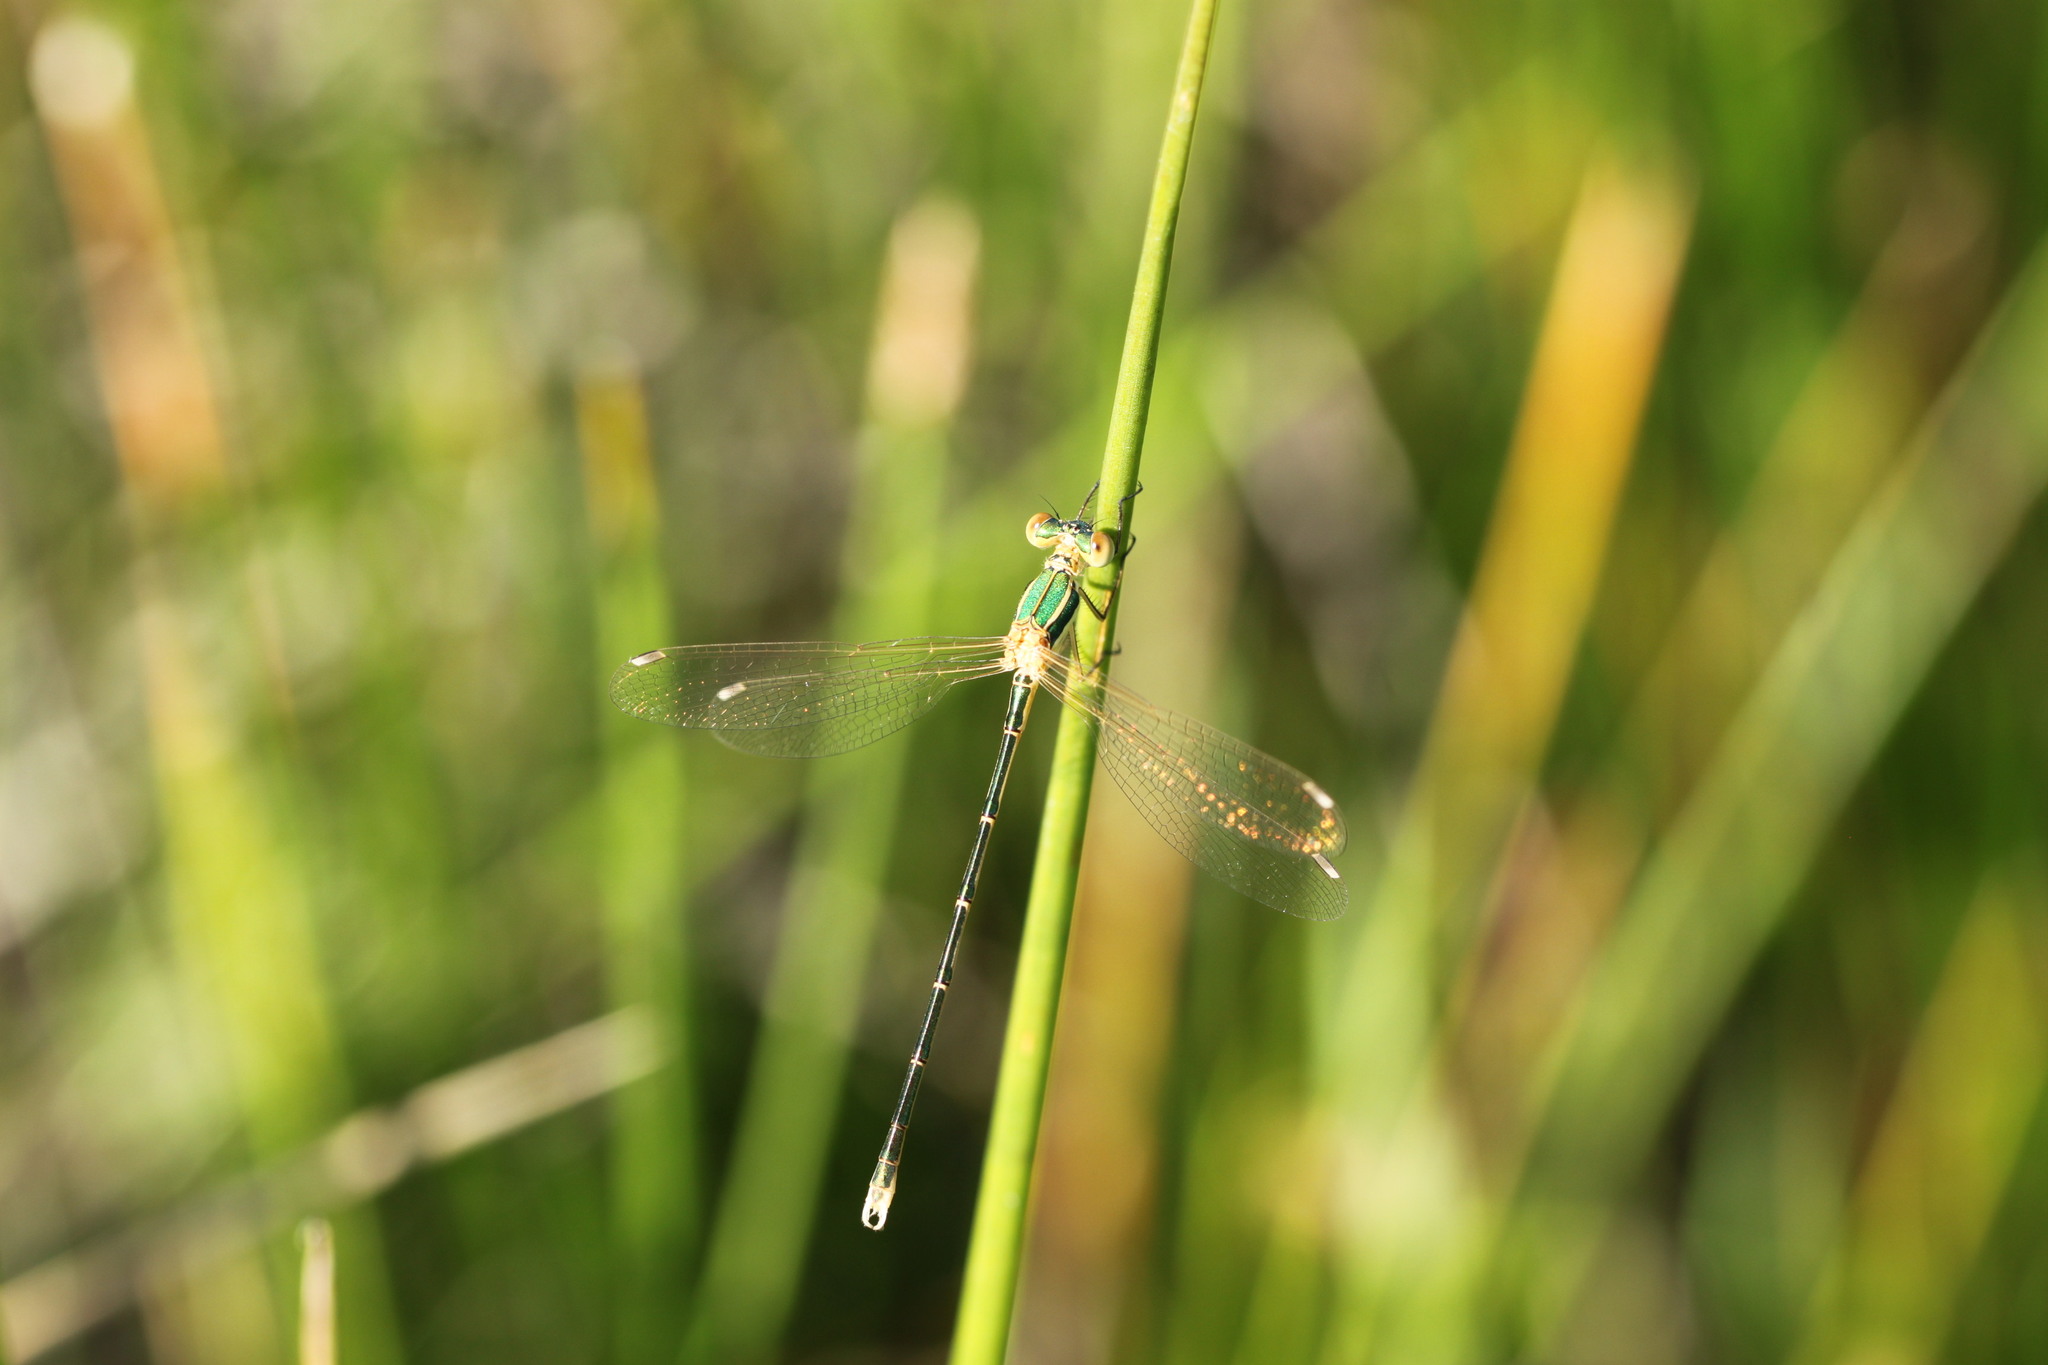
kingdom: Animalia
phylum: Arthropoda
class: Insecta
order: Odonata
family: Lestidae
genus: Lestes
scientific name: Lestes barbarus
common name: Migrant spreadwing
